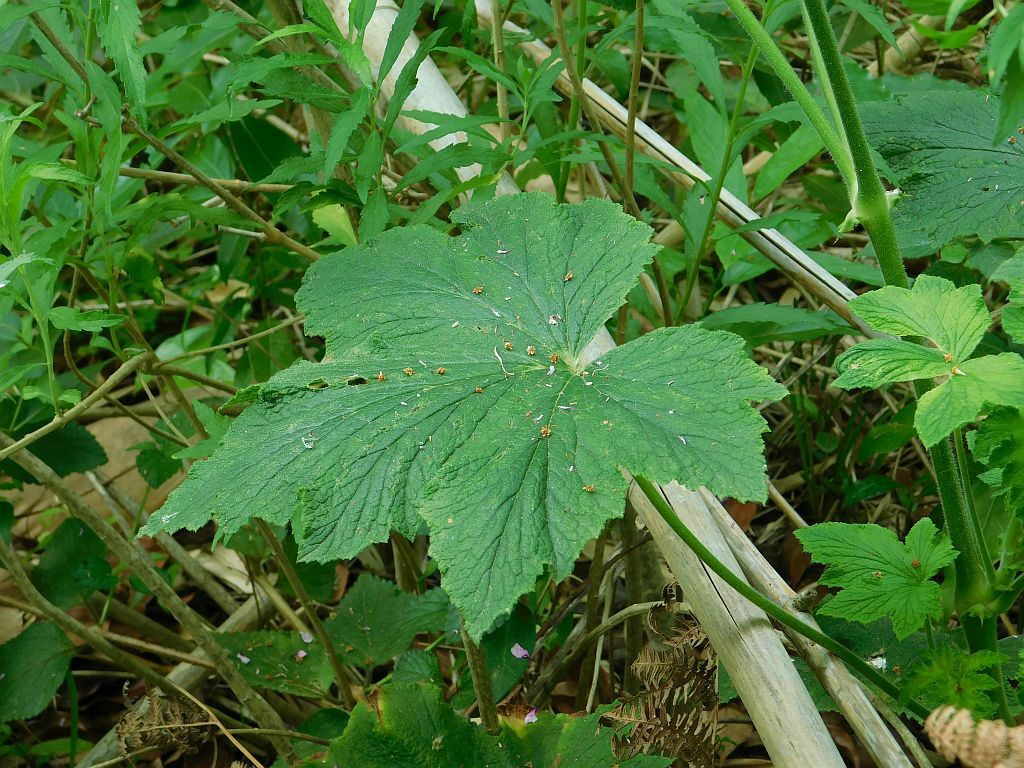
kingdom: Plantae
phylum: Tracheophyta
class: Magnoliopsida
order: Geraniales
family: Geraniaceae
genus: Pelargonium
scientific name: Pelargonium hispidum
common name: Hispid pelargonium
